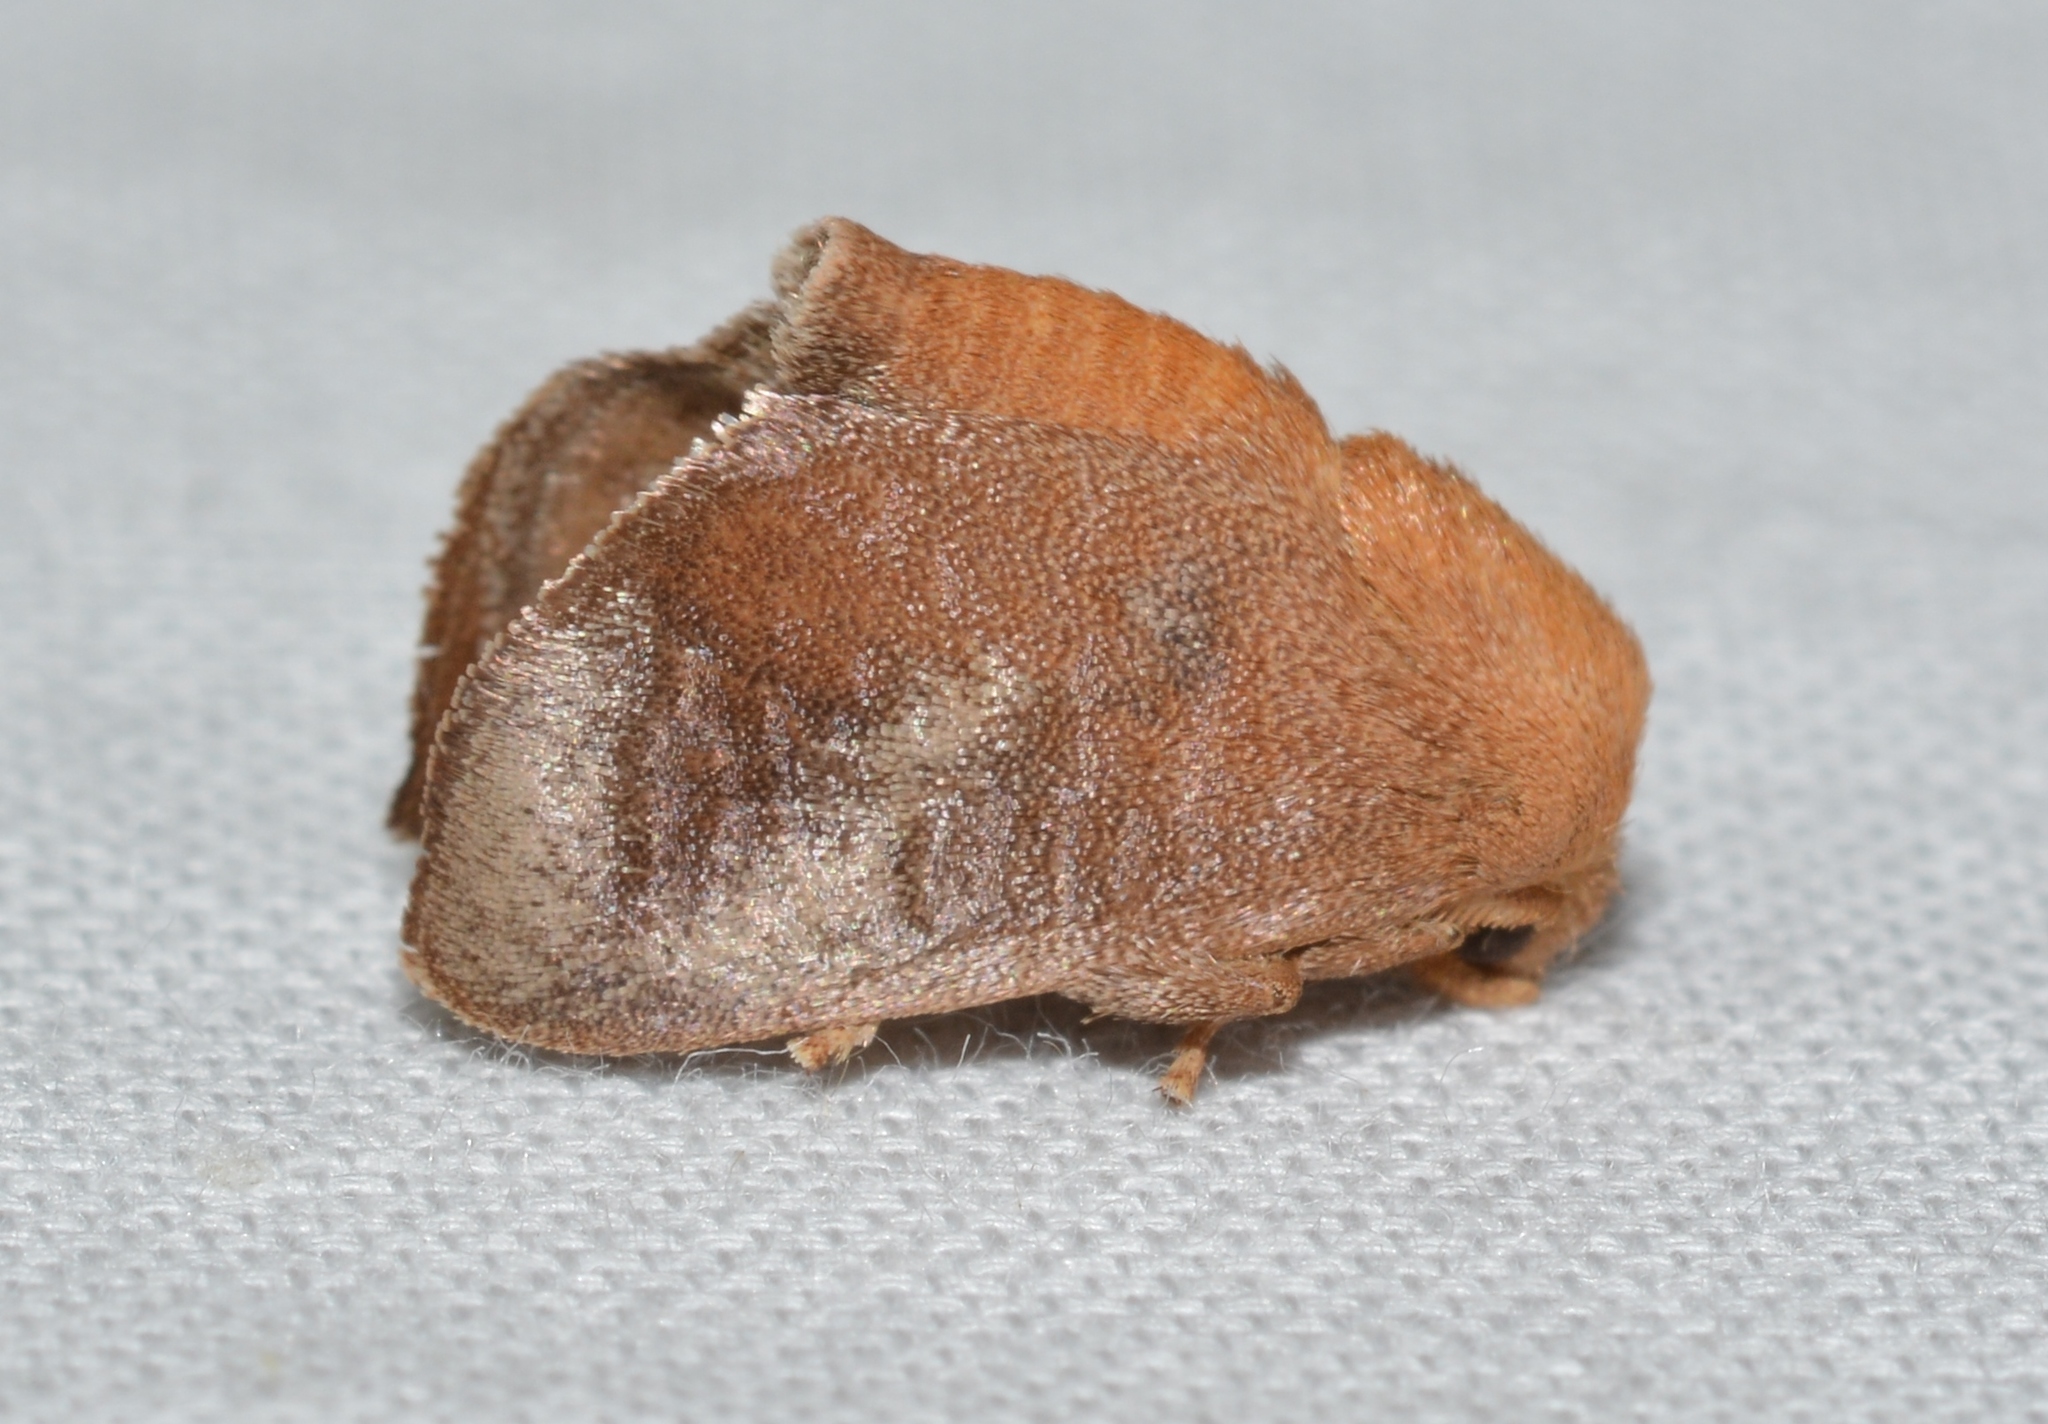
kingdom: Animalia
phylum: Arthropoda
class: Insecta
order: Lepidoptera
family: Limacodidae
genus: Isa
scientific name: Isa textula
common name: Crowned slug moth
